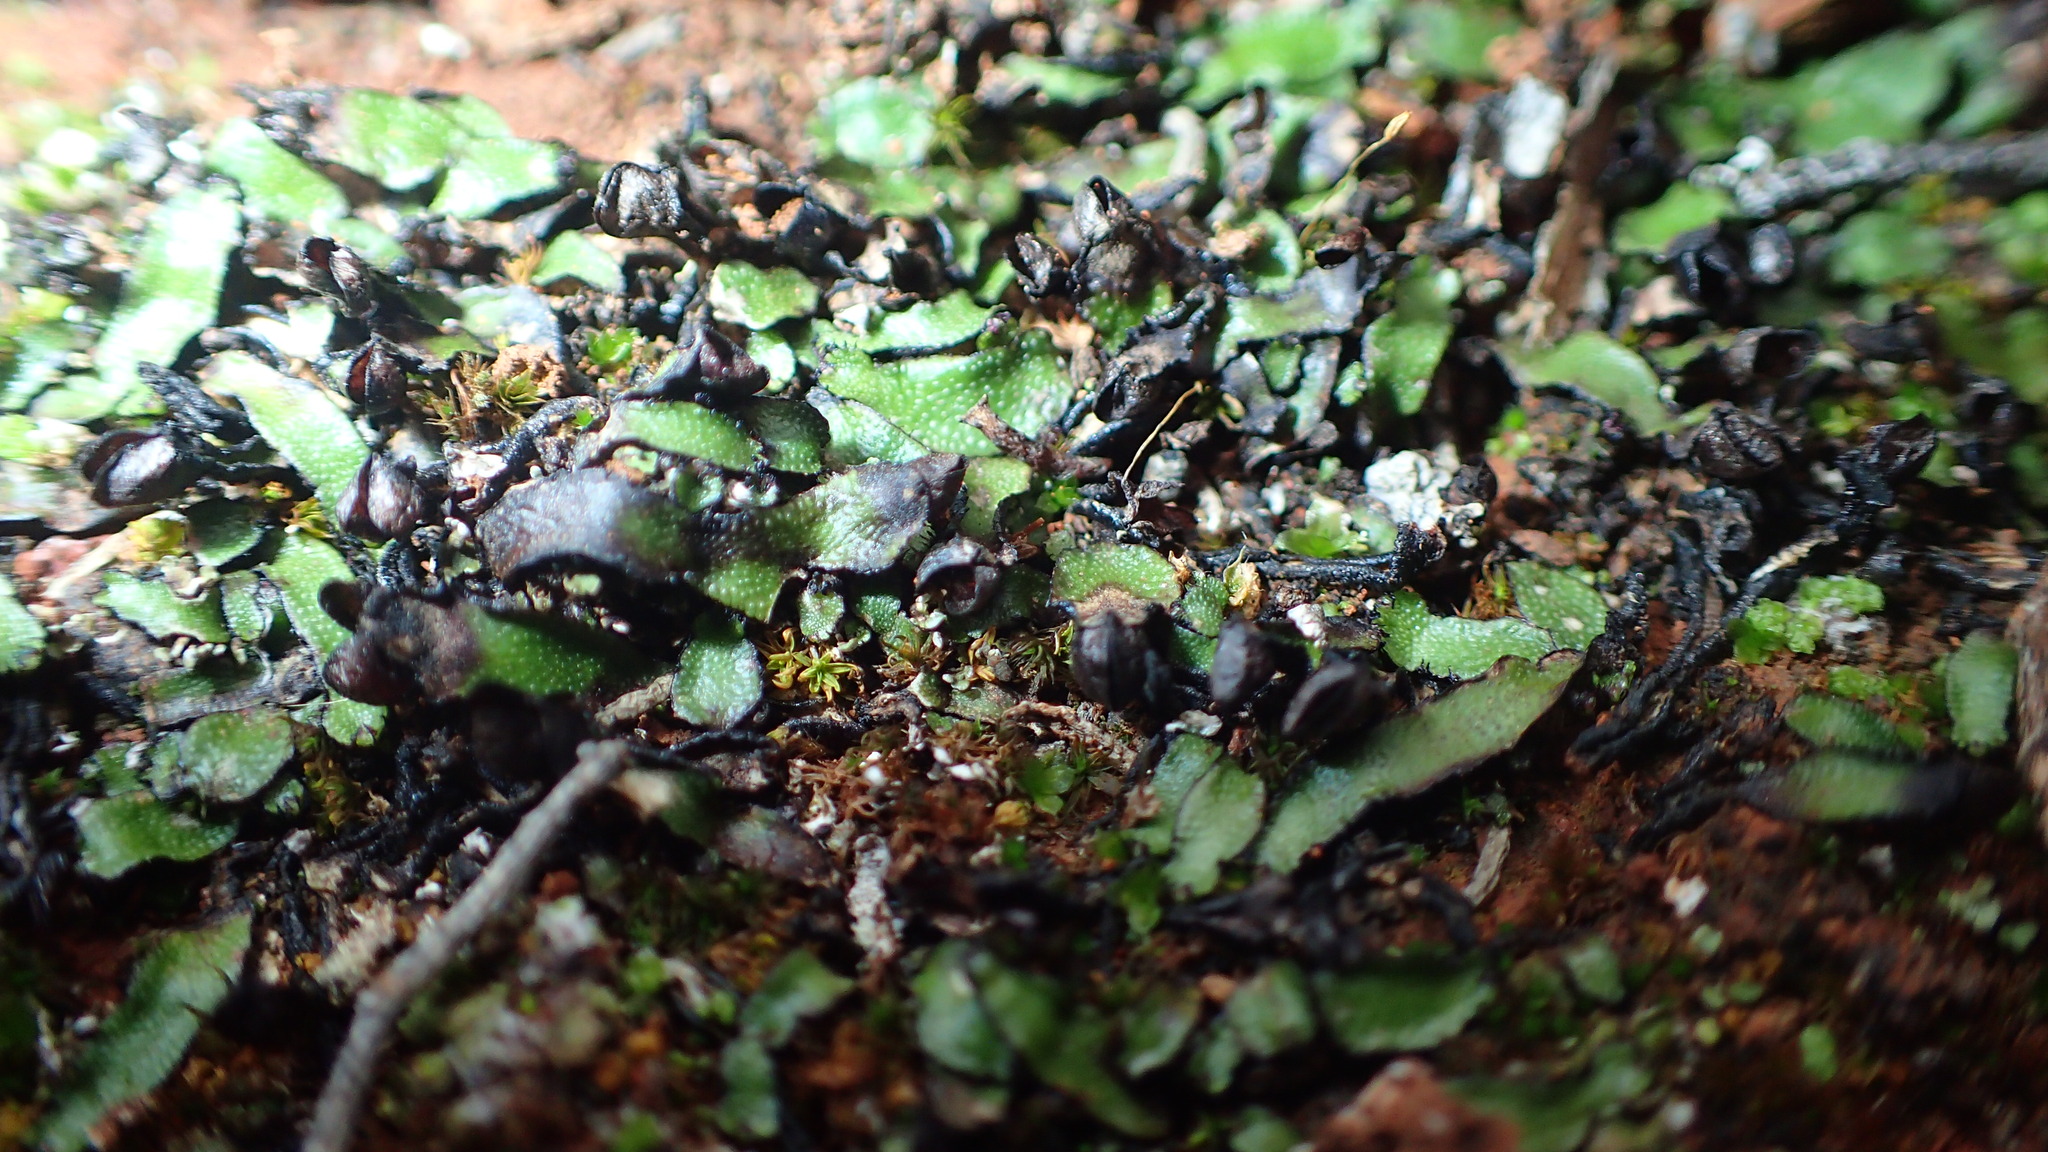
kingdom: Plantae
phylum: Marchantiophyta
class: Marchantiopsida
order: Marchantiales
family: Targioniaceae
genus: Targionia
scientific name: Targionia hypophylla
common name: Orobus-seed liverwort
